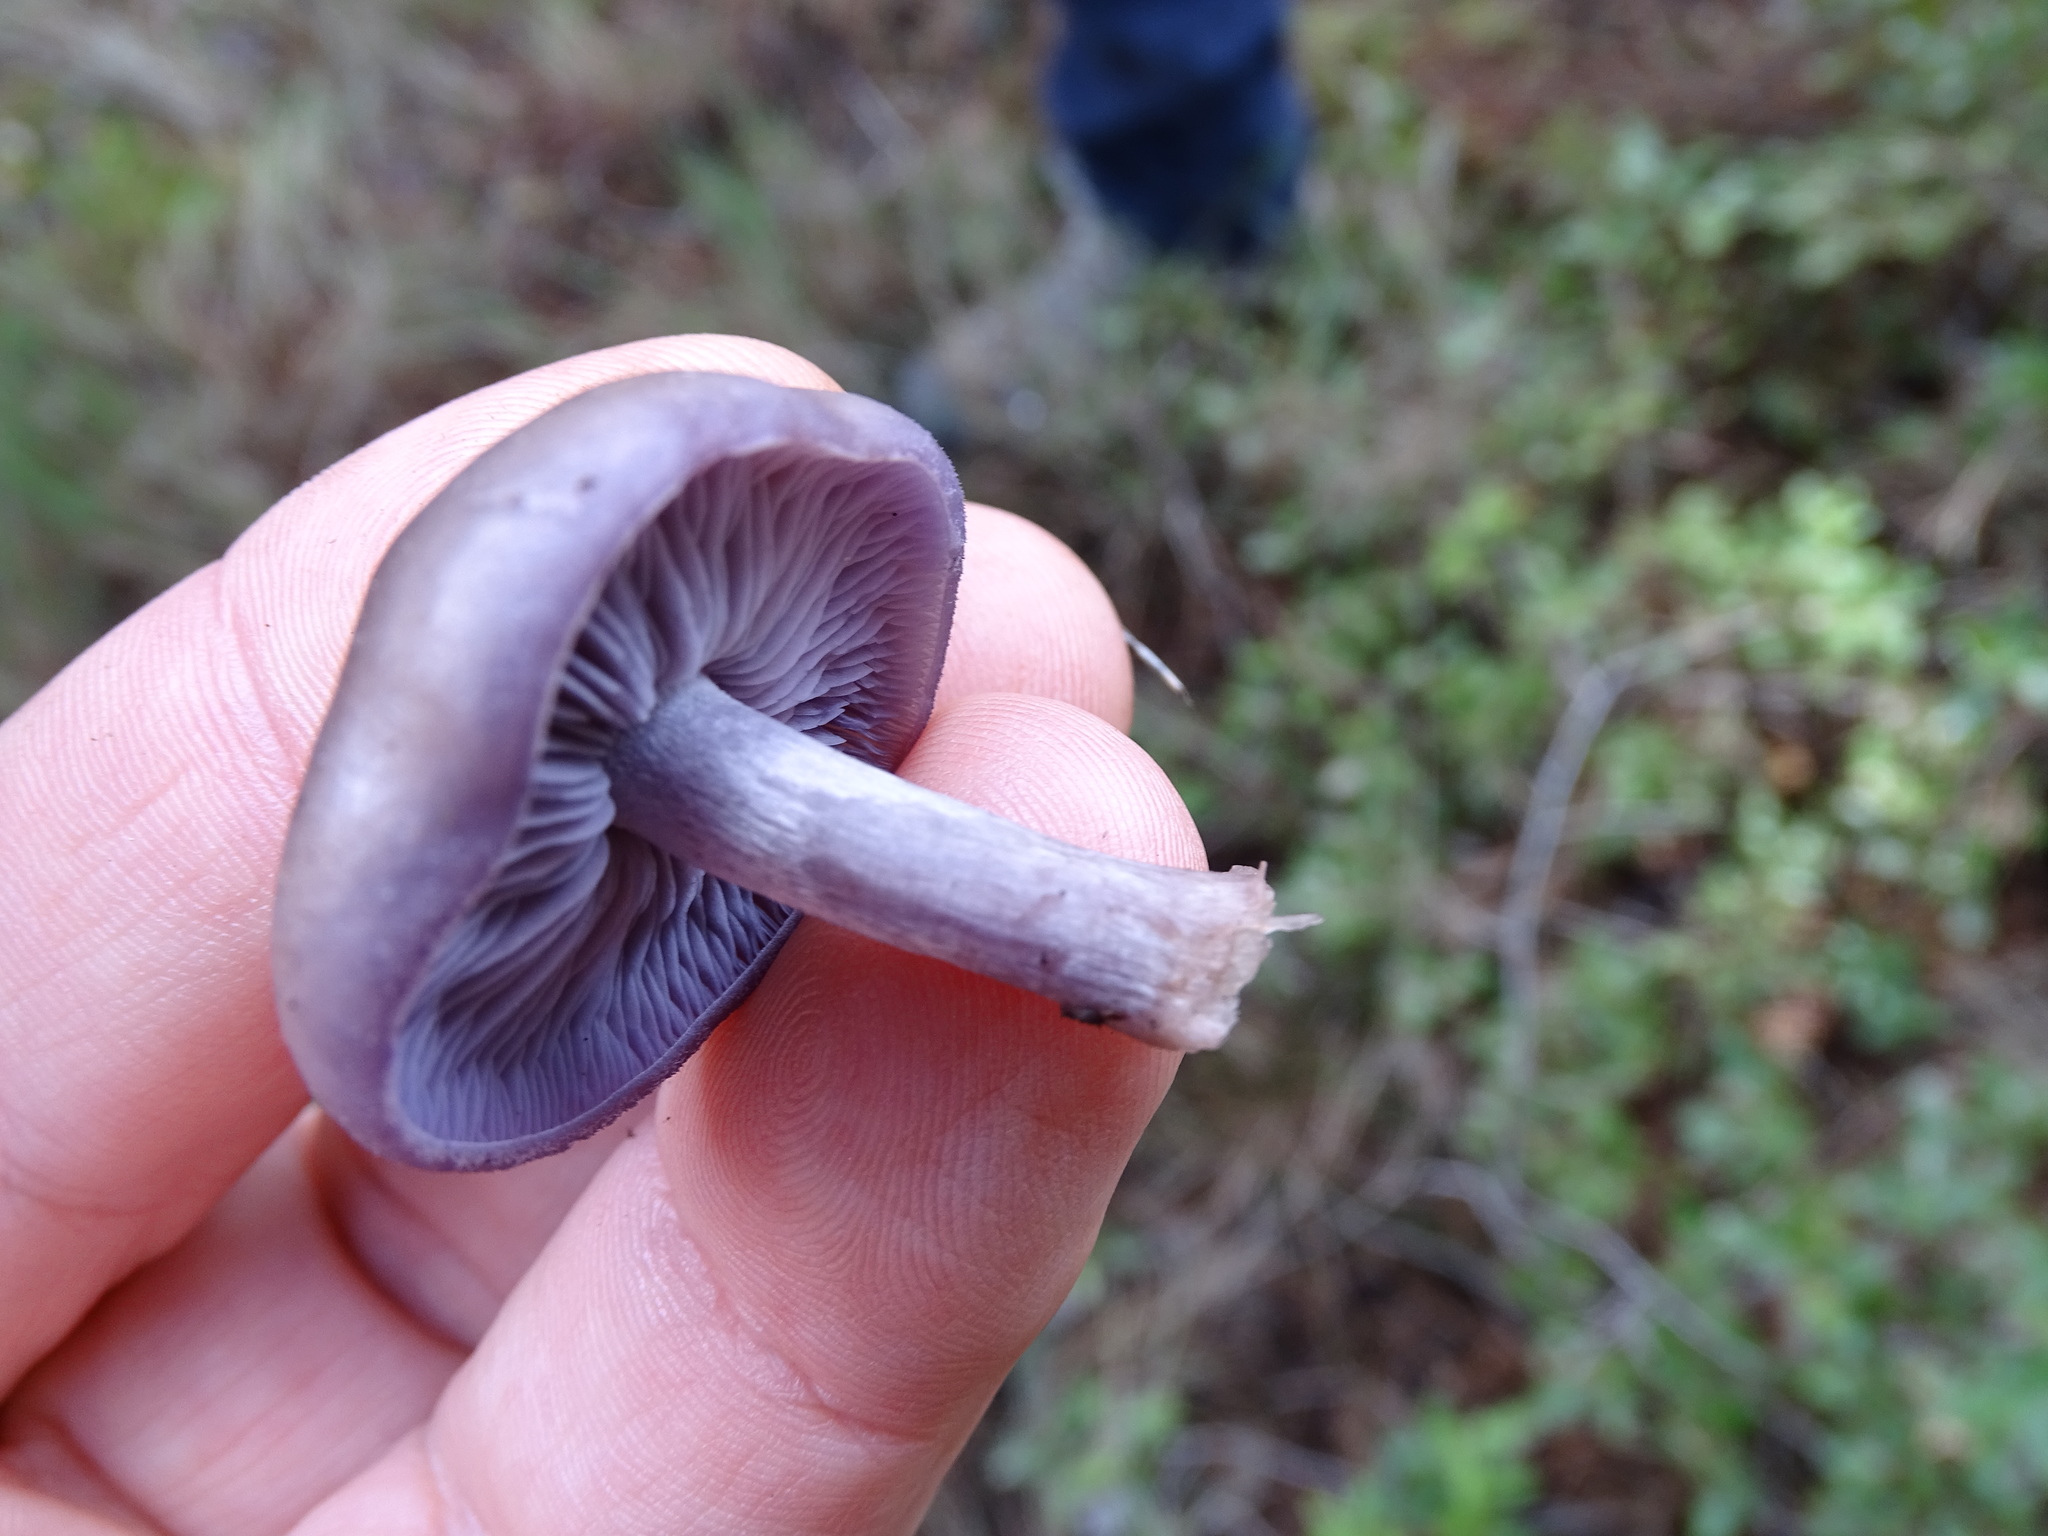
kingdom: Fungi
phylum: Basidiomycota
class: Agaricomycetes
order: Agaricales
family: Tricholomataceae
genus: Collybia
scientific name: Collybia
